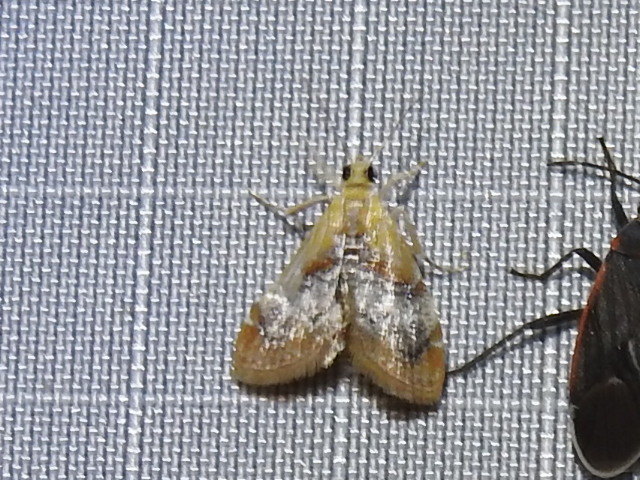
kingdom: Animalia
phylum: Arthropoda
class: Insecta
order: Lepidoptera
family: Pyralidae
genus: Cacozelia
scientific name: Cacozelia basiochrealis
